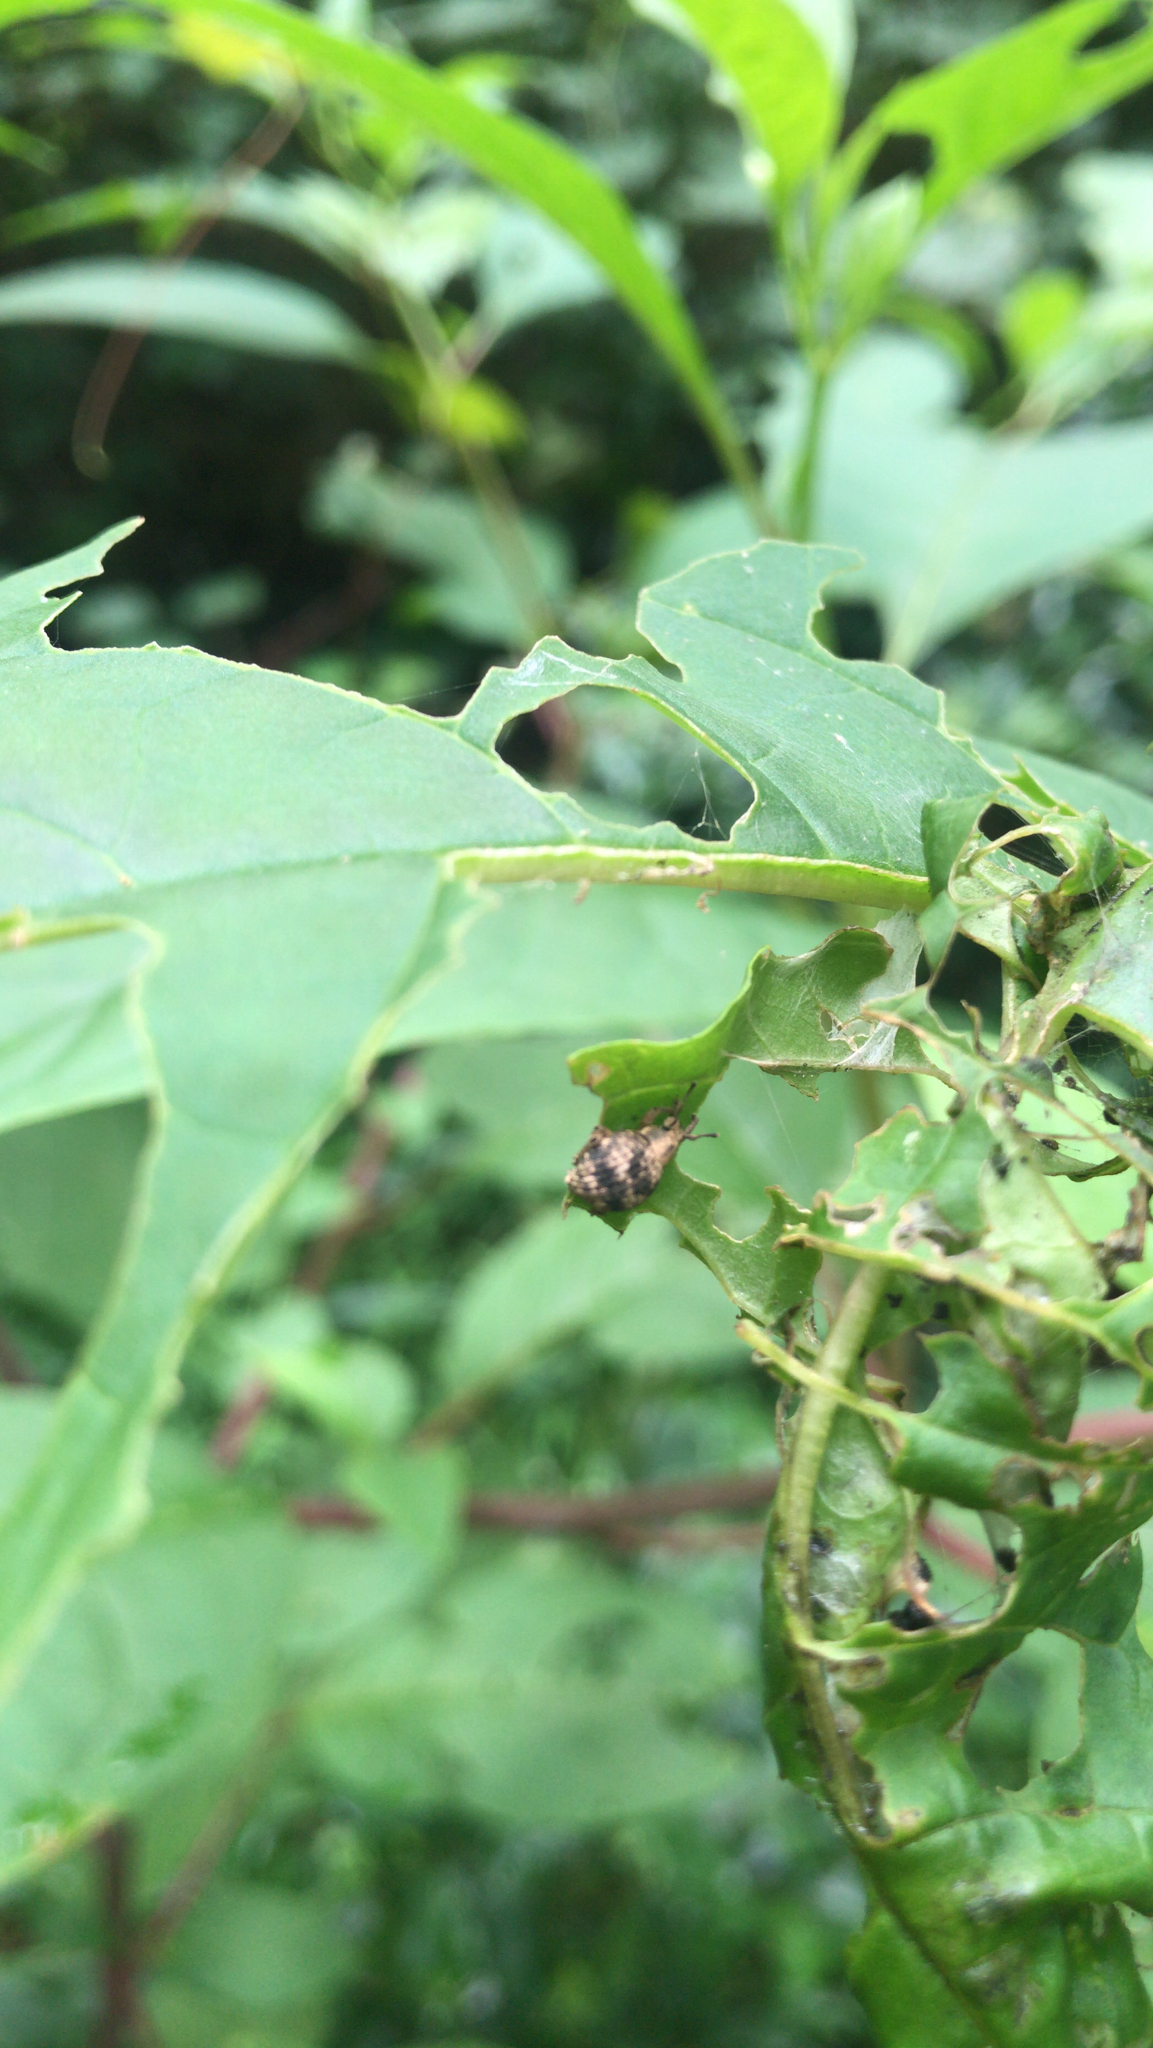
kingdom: Animalia
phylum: Arthropoda
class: Insecta
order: Coleoptera
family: Curculionidae
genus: Pseudocneorhinus
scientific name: Pseudocneorhinus bifasciatus
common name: Two-banded japanese weevil
